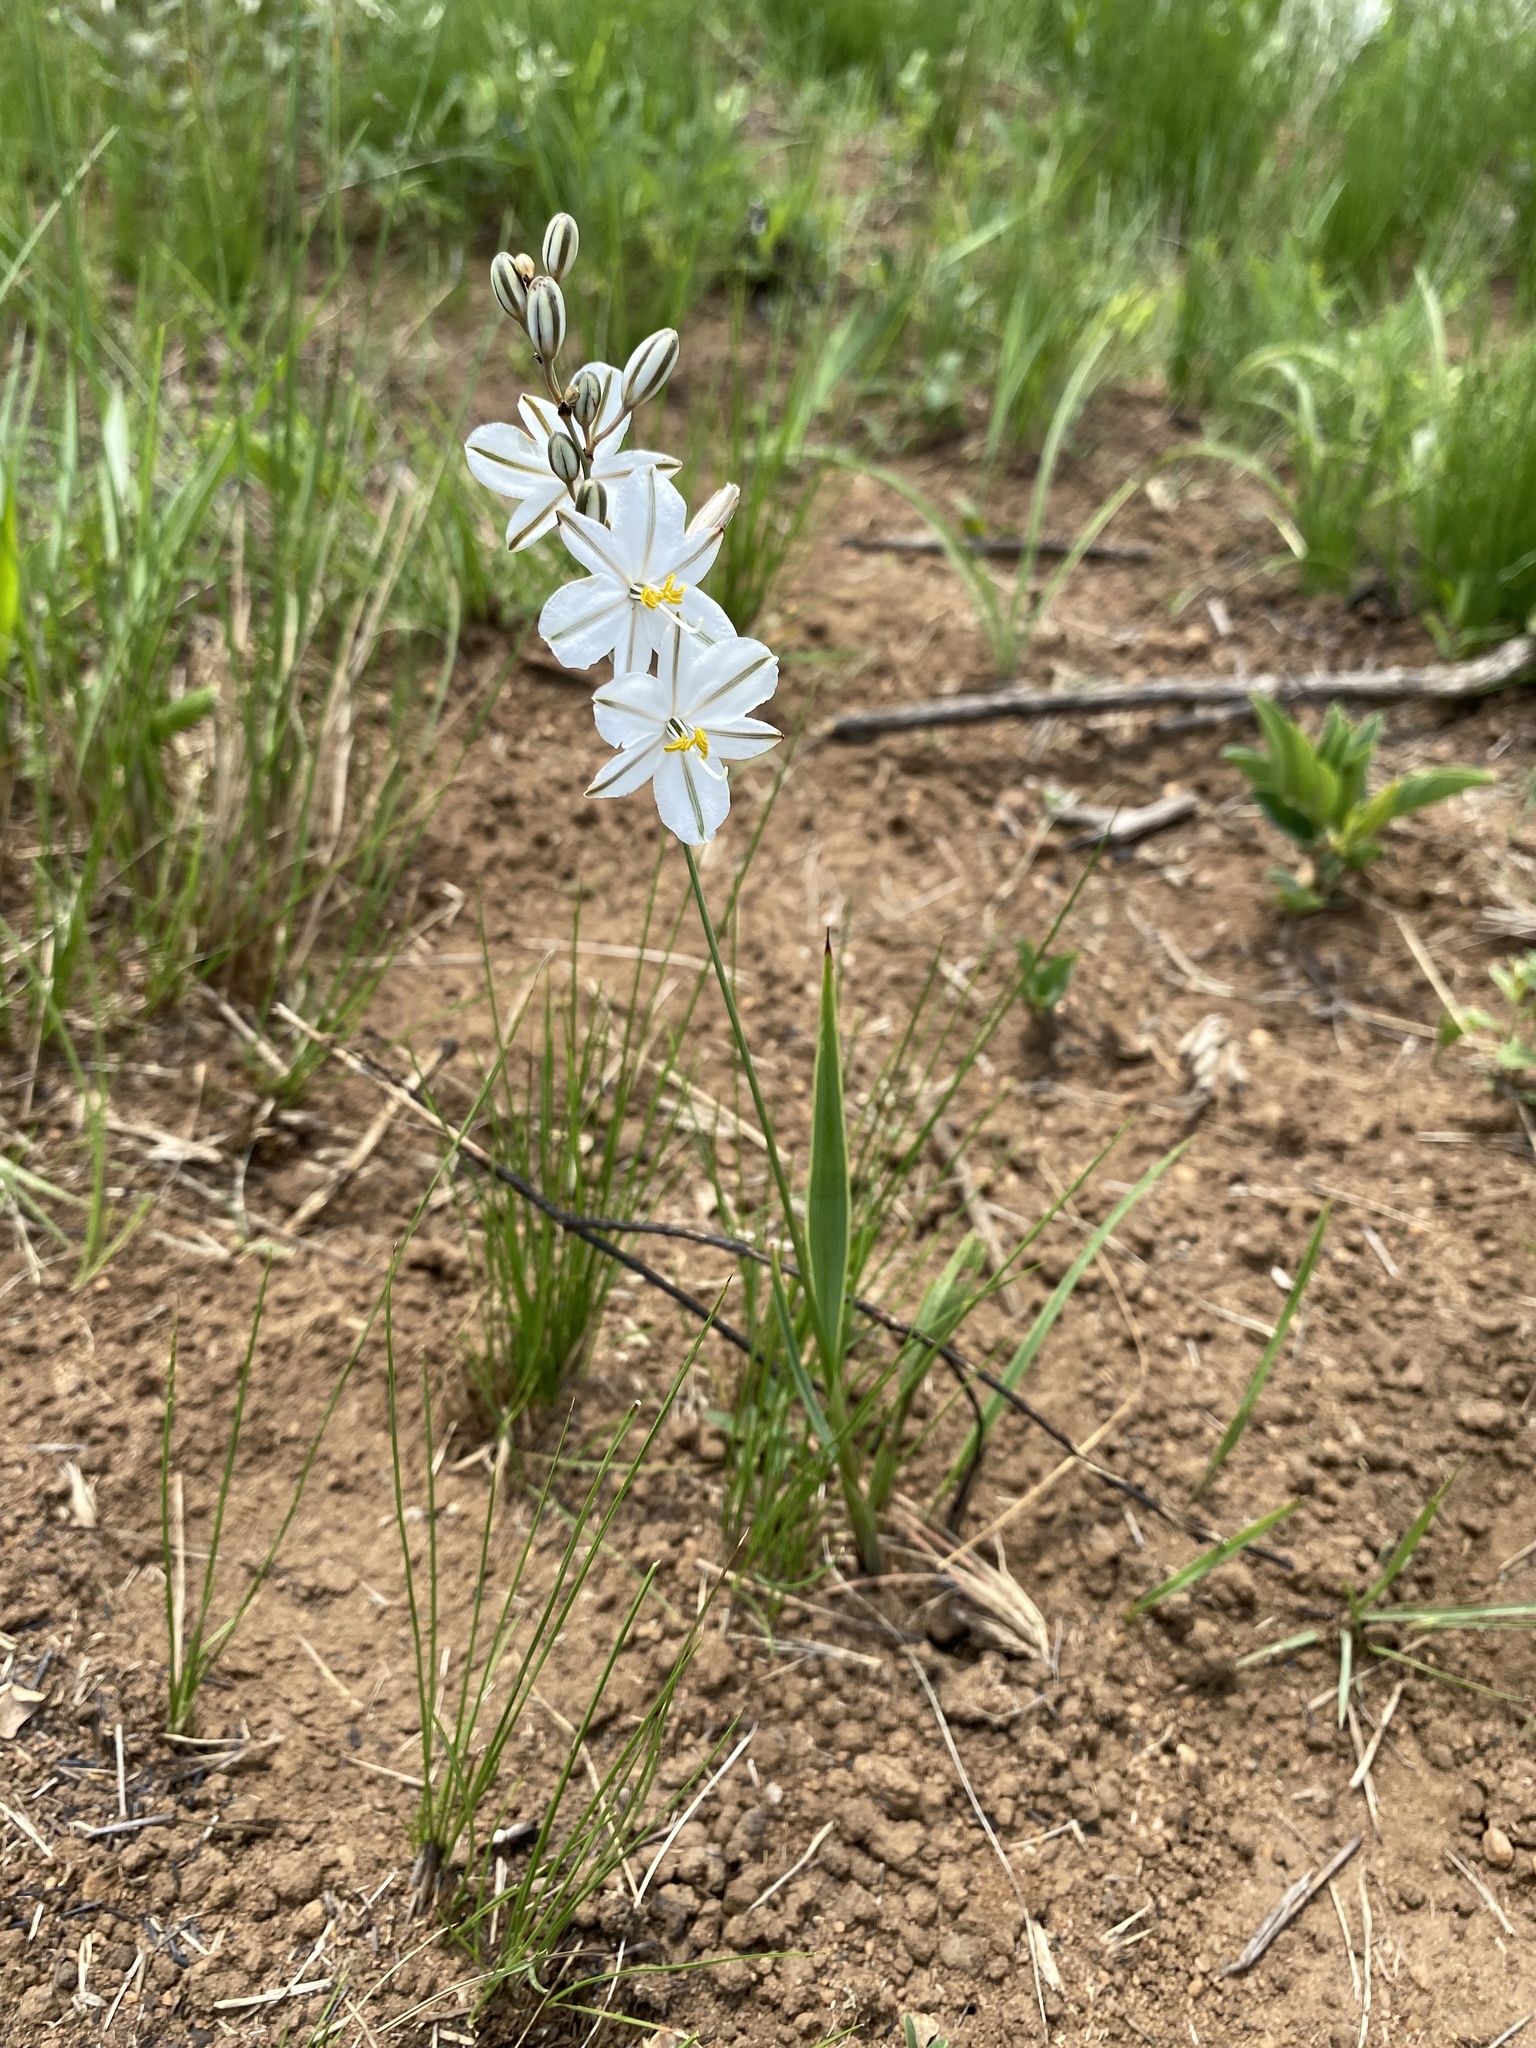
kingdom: Plantae
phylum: Tracheophyta
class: Liliopsida
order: Asparagales
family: Asparagaceae
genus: Chlorophytum
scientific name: Chlorophytum cooperi
